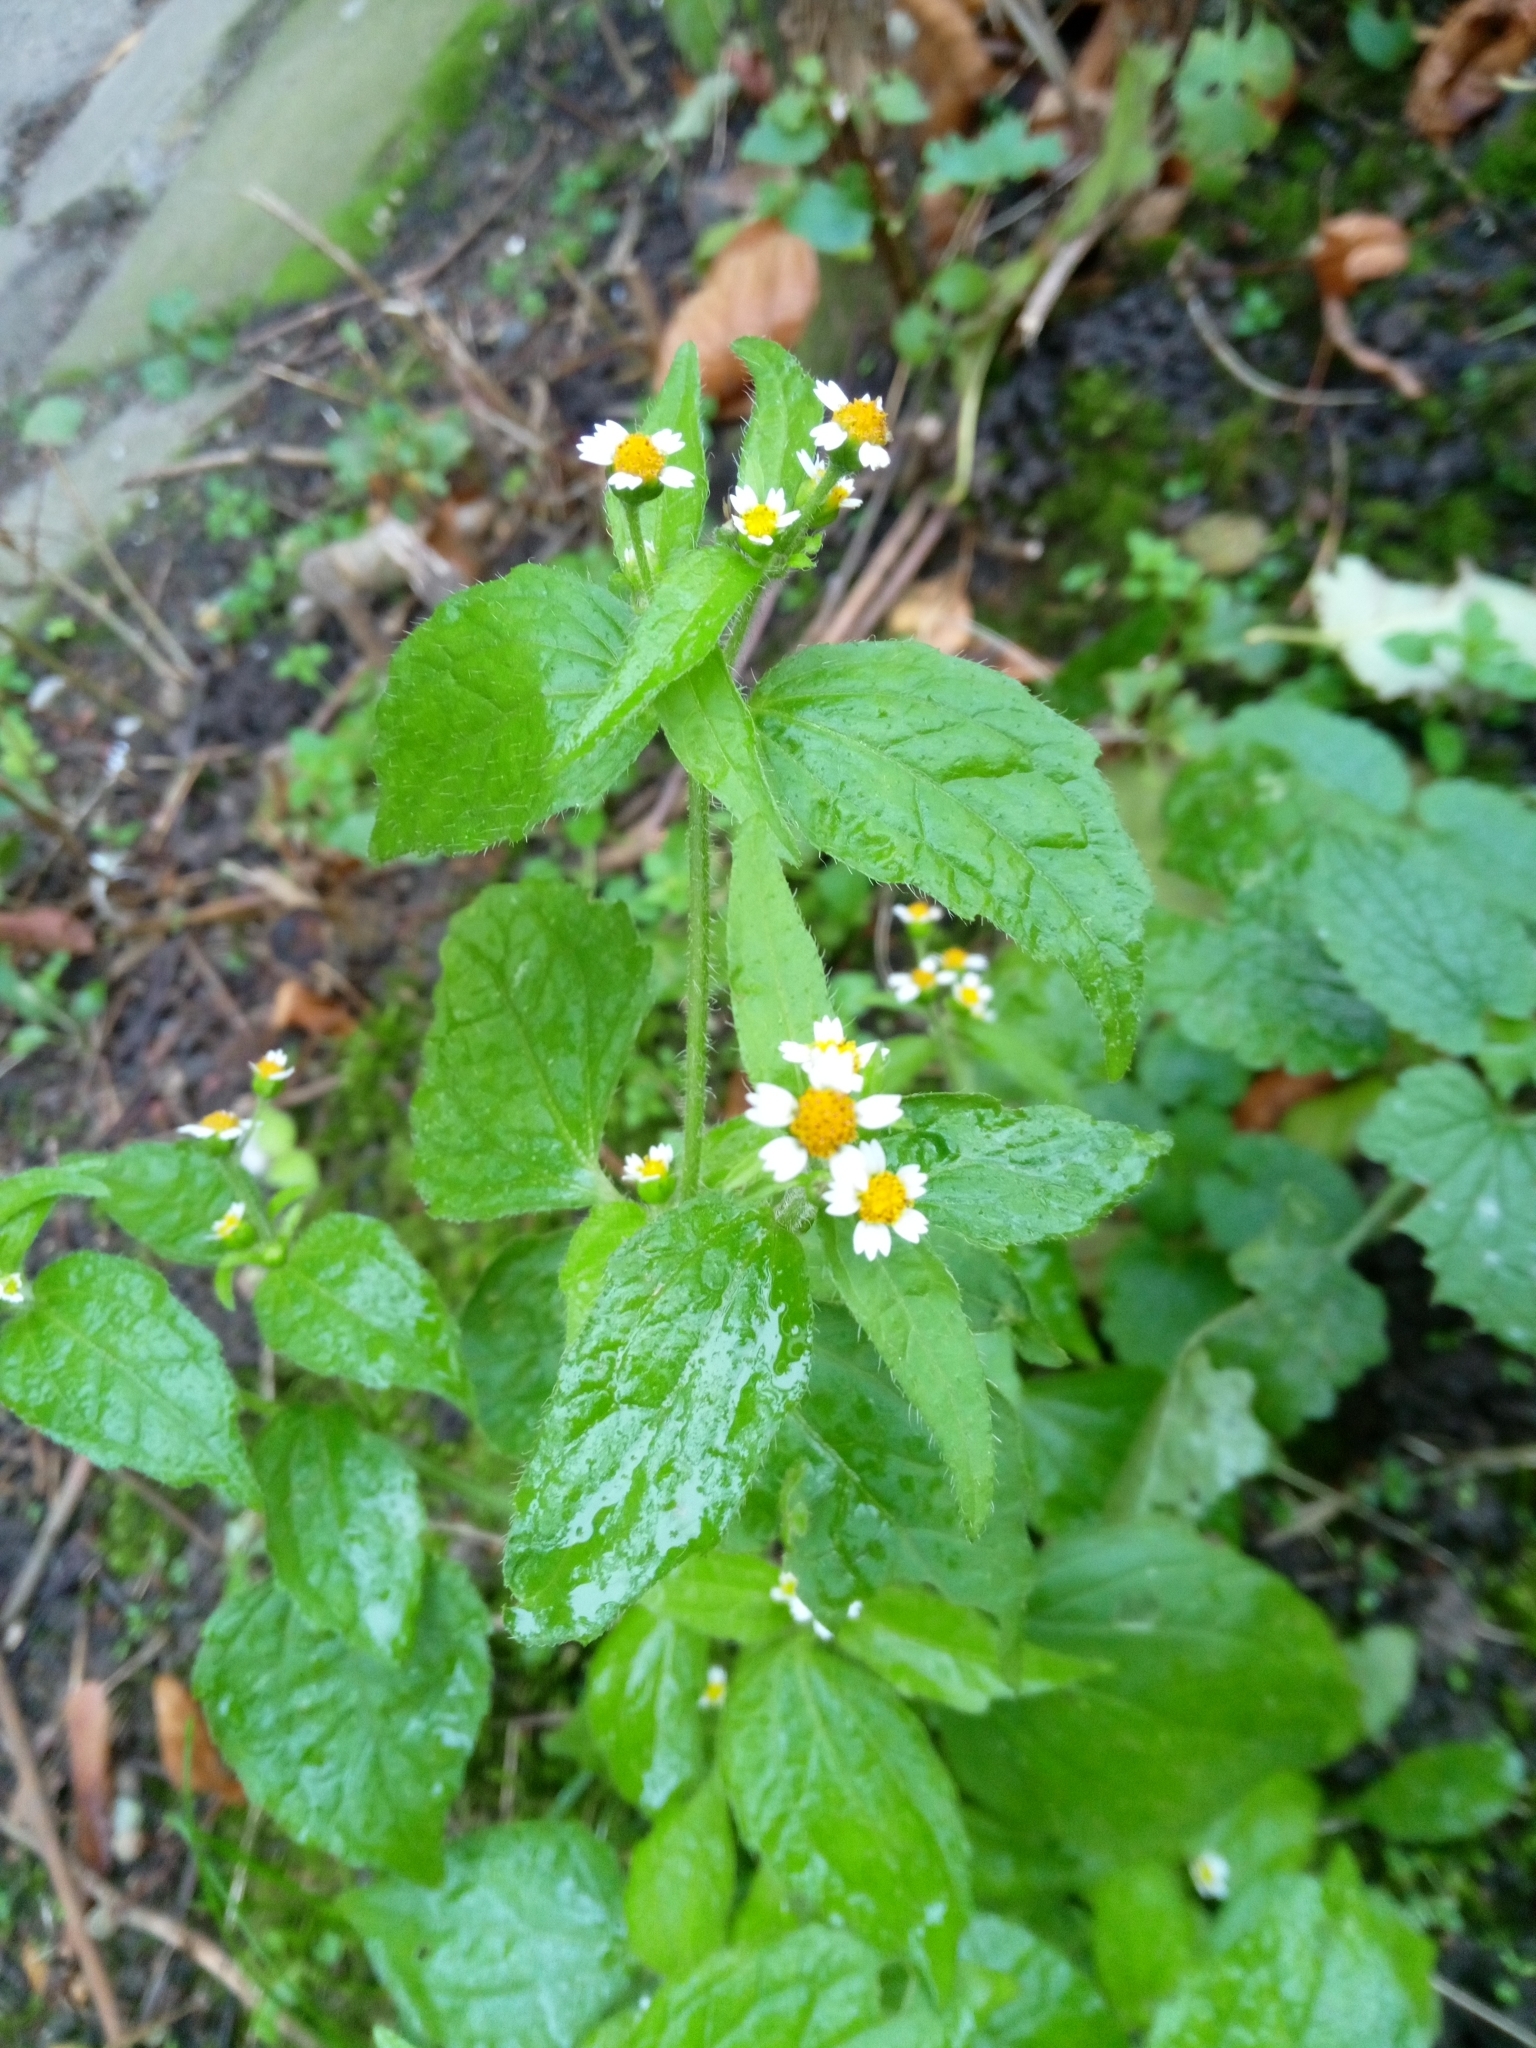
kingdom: Plantae
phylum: Tracheophyta
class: Magnoliopsida
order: Asterales
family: Asteraceae
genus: Galinsoga
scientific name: Galinsoga quadriradiata
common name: Shaggy soldier
